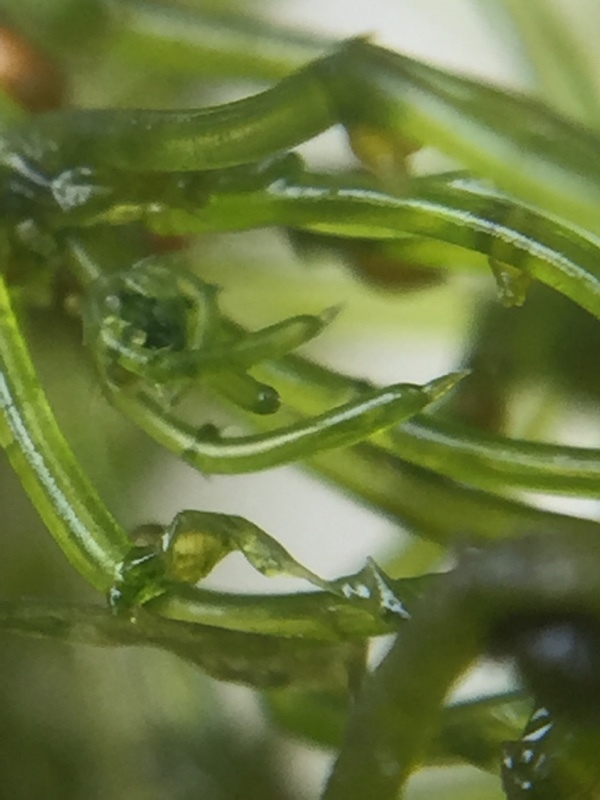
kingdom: Plantae
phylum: Charophyta
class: Charophyceae
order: Charales
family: Characeae
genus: Chara
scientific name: Chara corallina
